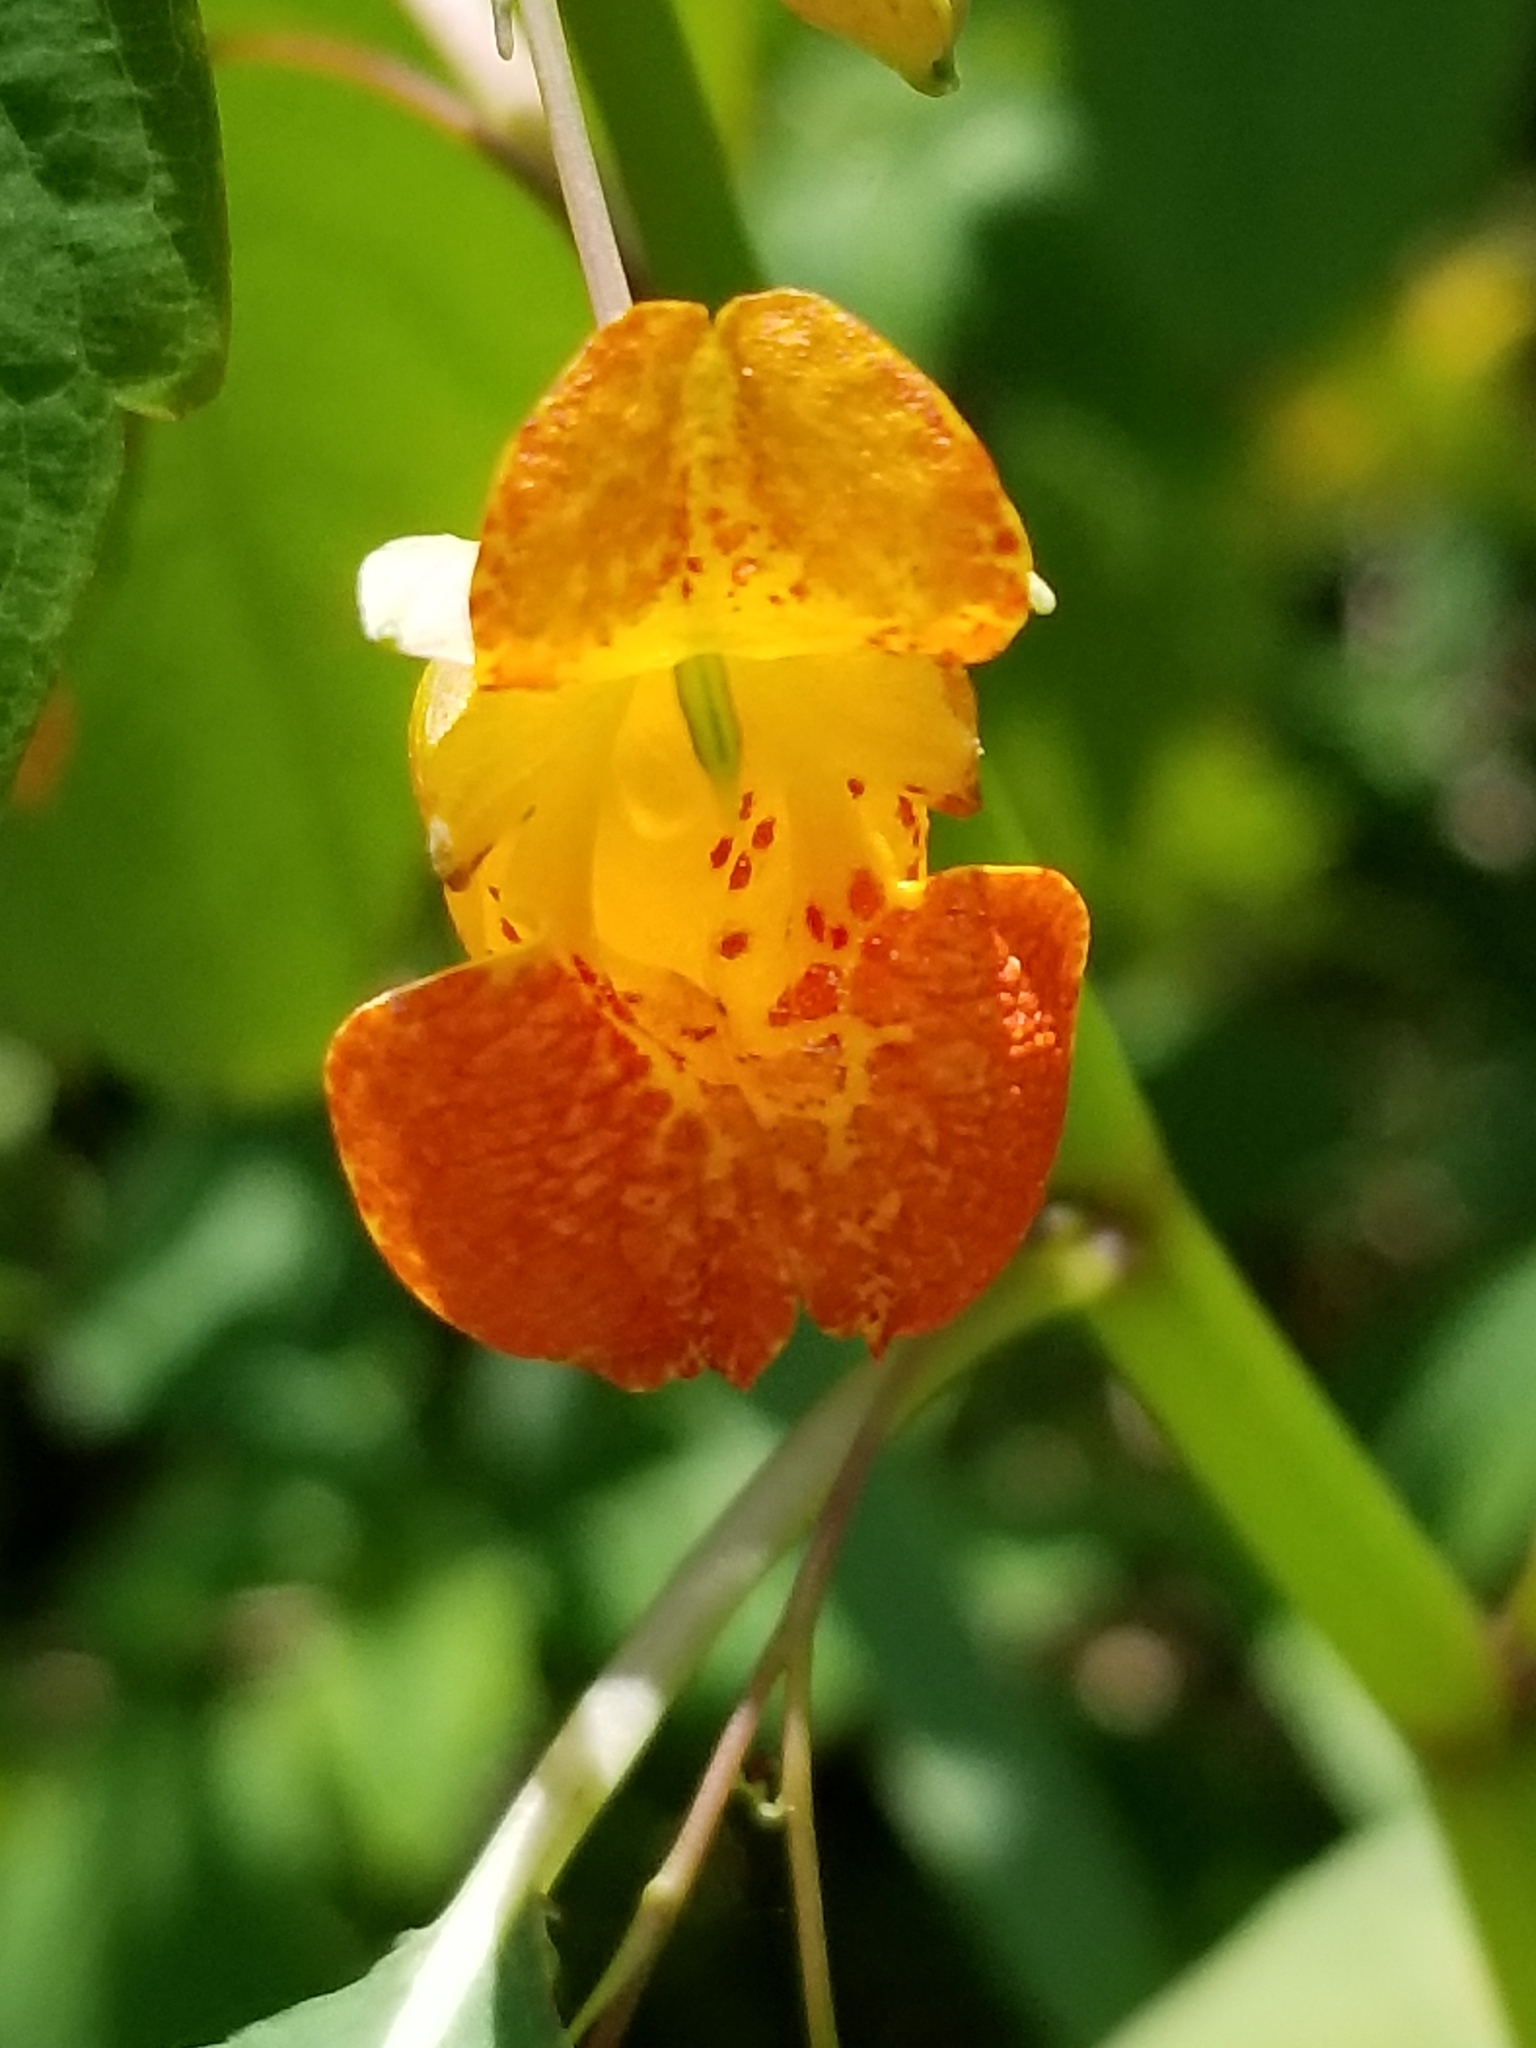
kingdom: Plantae
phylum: Tracheophyta
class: Magnoliopsida
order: Ericales
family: Balsaminaceae
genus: Impatiens
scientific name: Impatiens capensis
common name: Orange balsam
